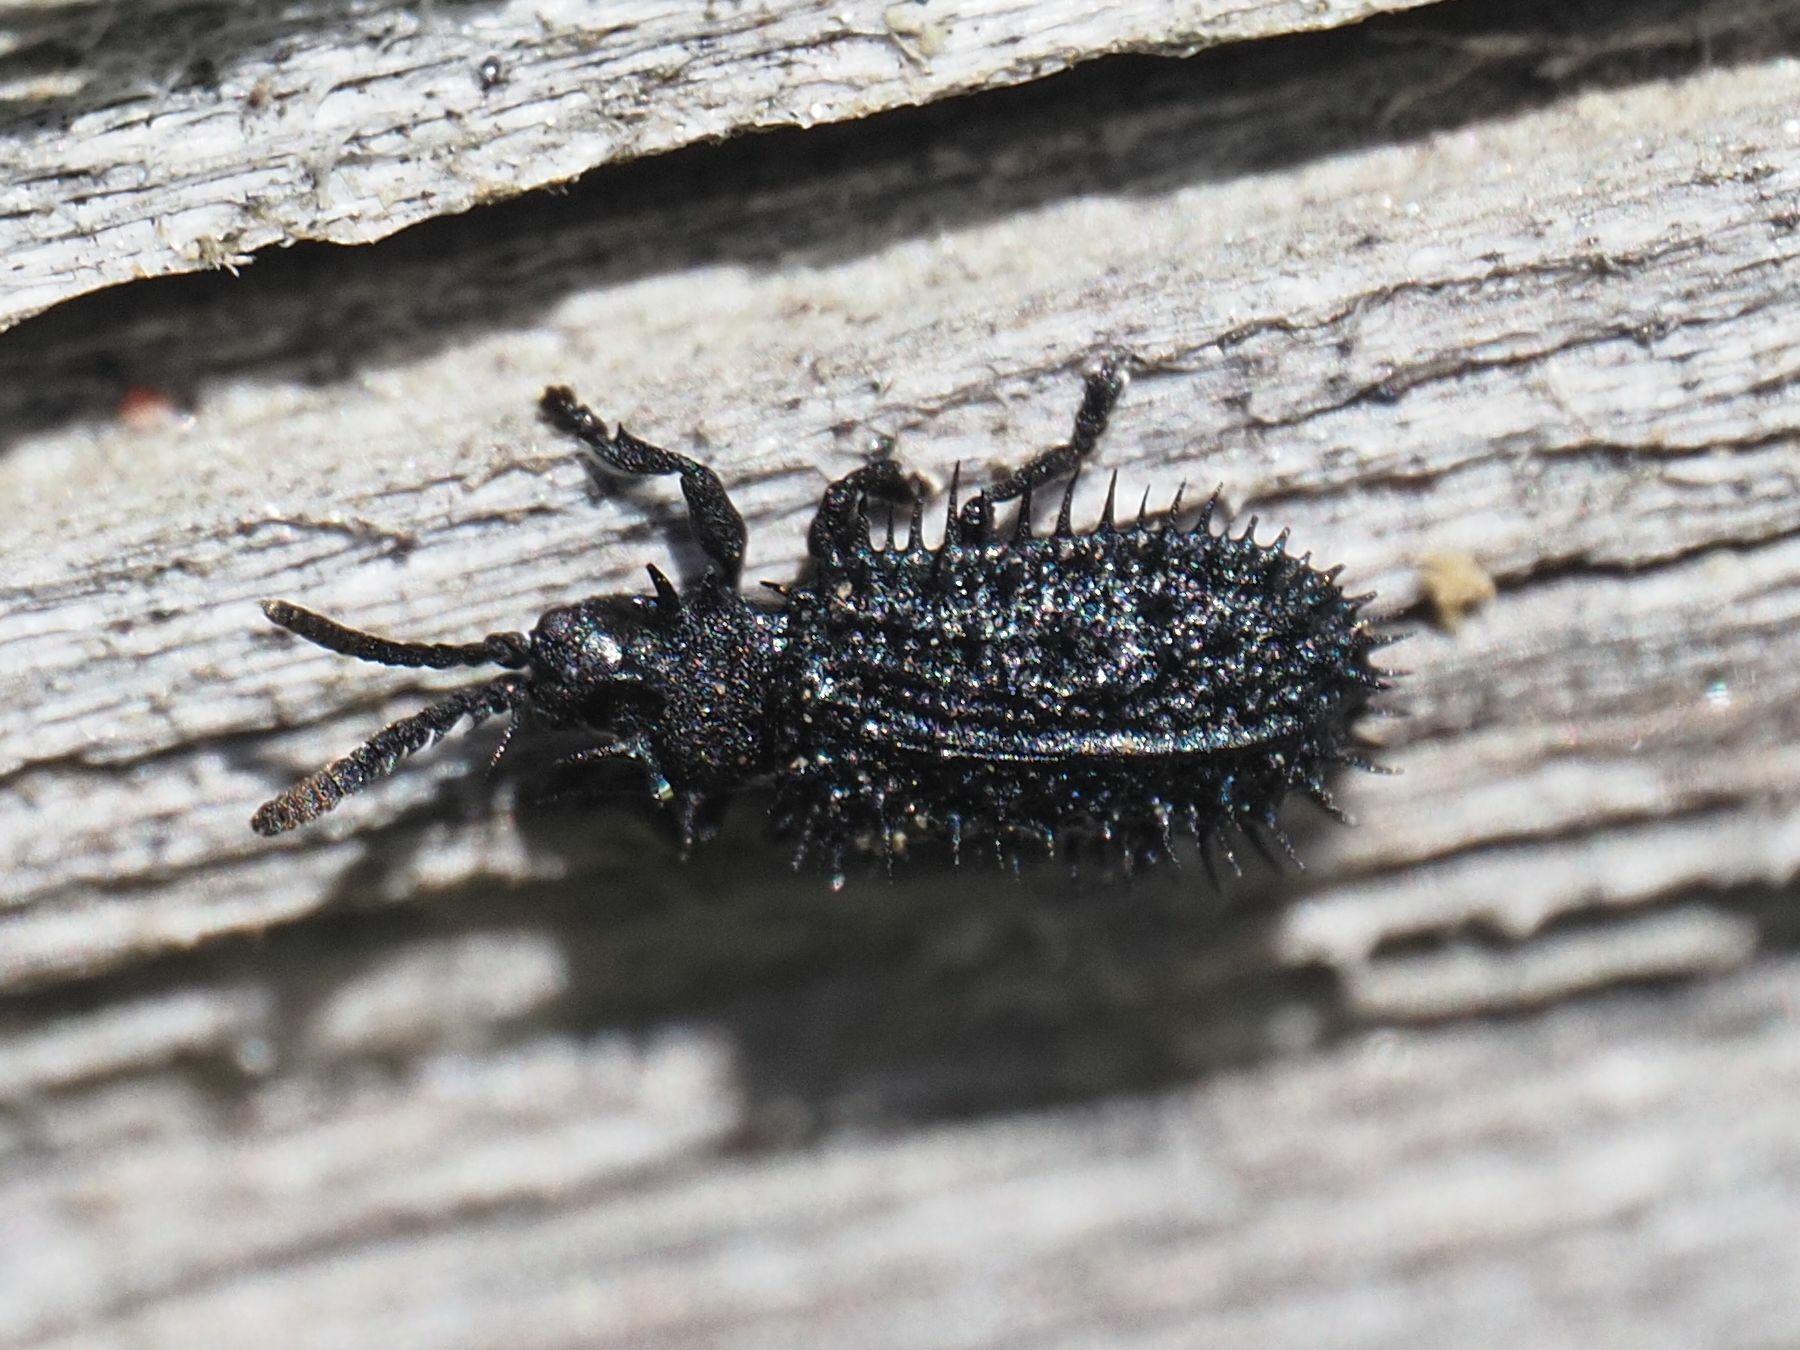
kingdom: Animalia
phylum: Arthropoda
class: Insecta
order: Coleoptera
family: Chrysomelidae
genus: Hispa
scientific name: Hispa atra
